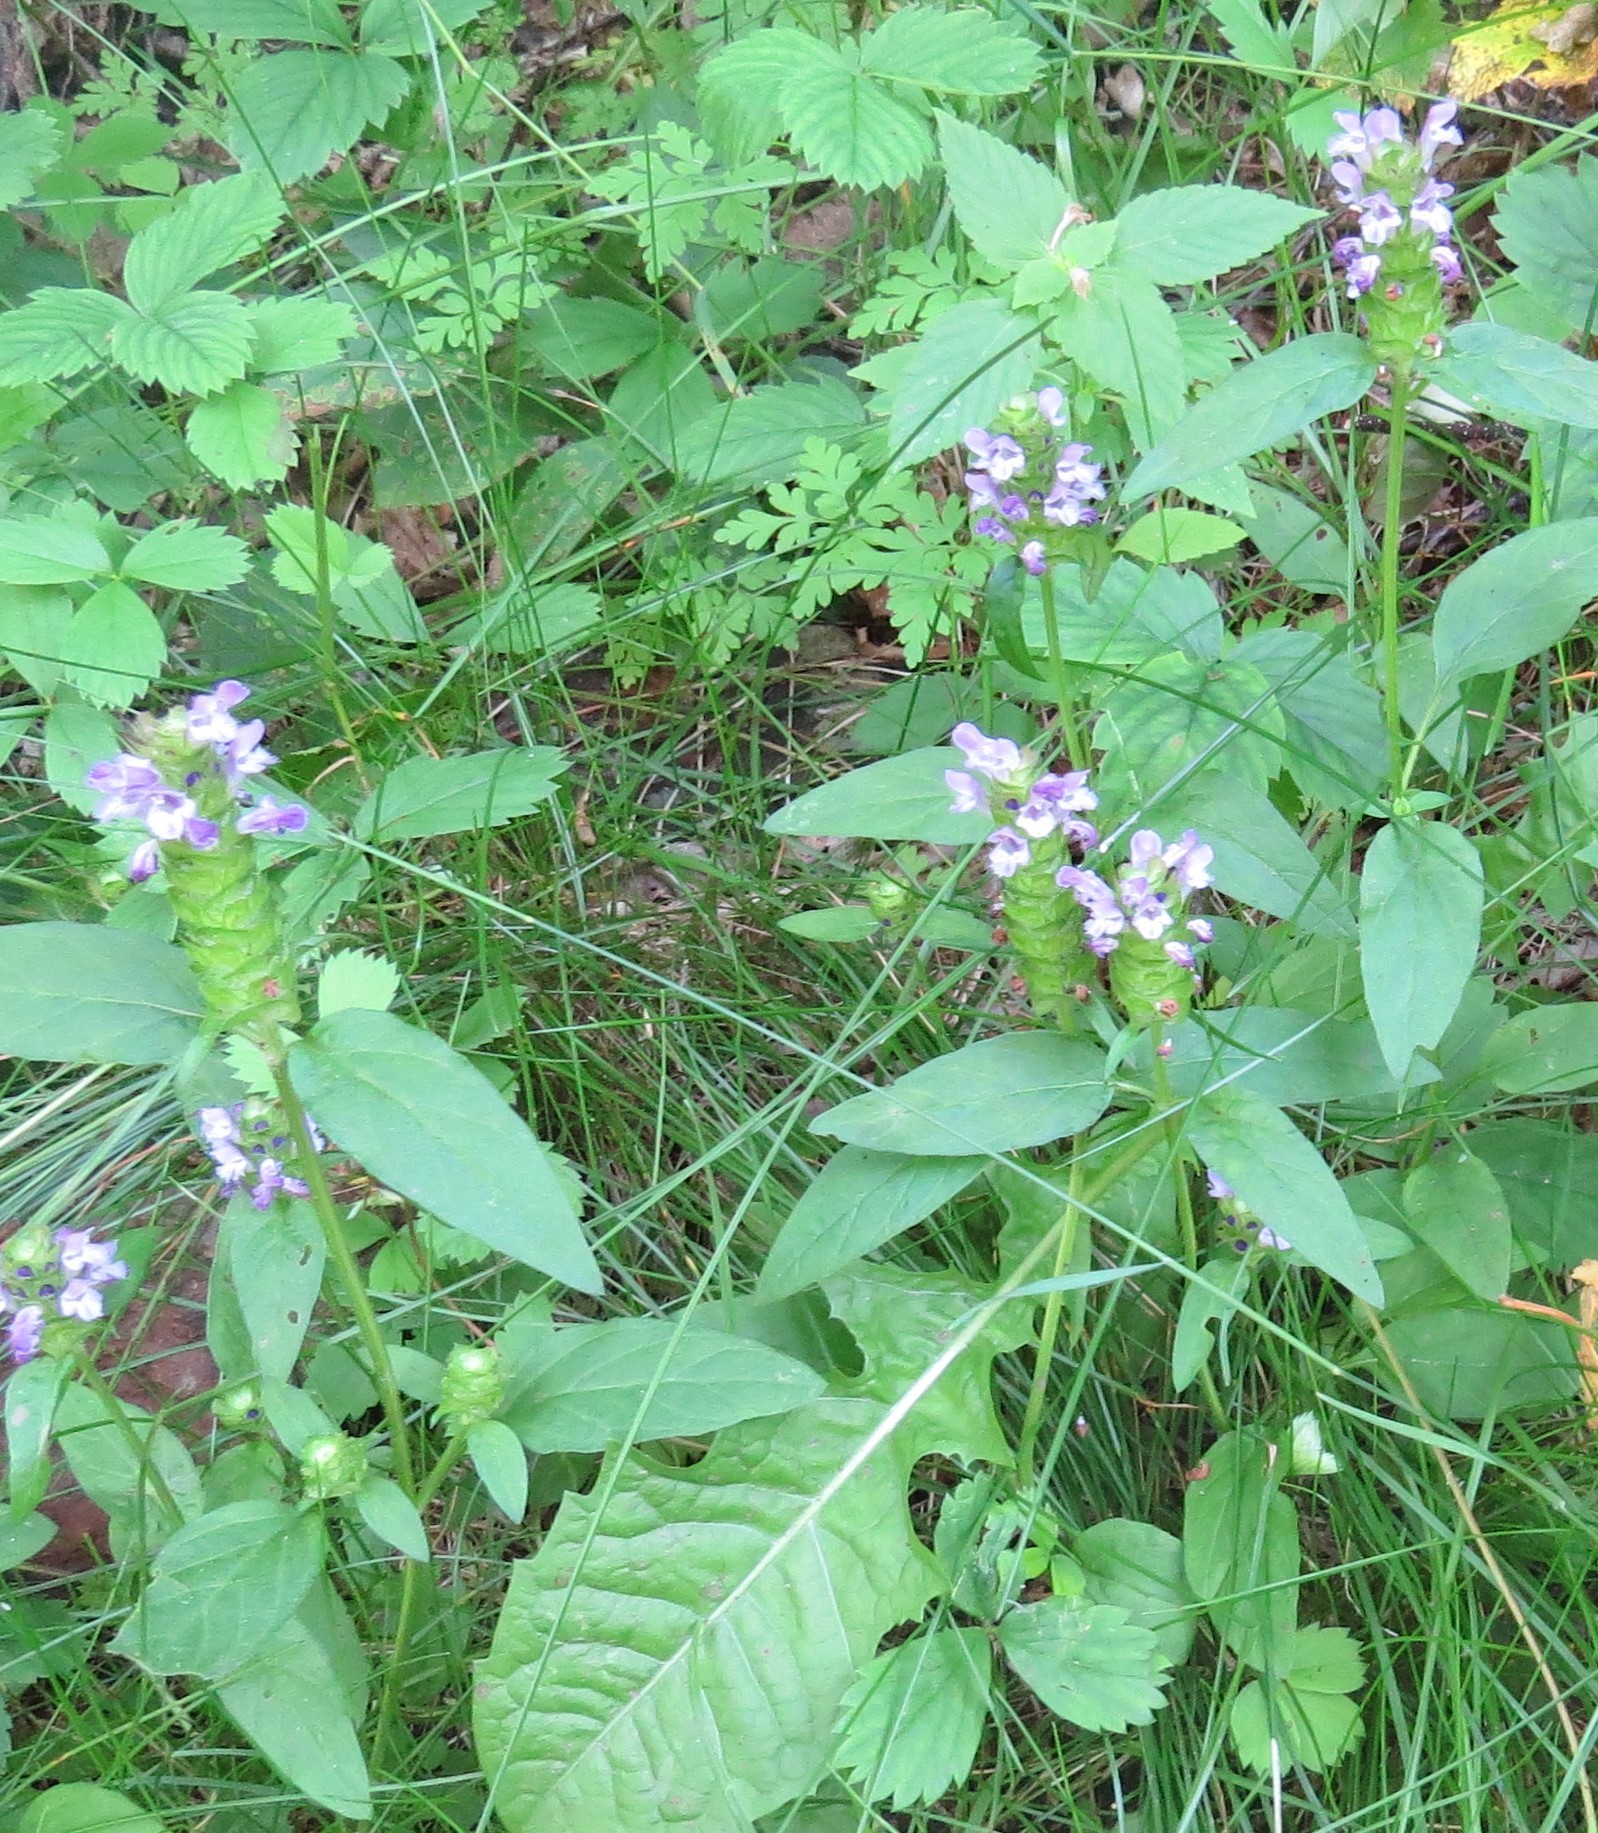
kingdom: Plantae
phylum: Tracheophyta
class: Magnoliopsida
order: Lamiales
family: Lamiaceae
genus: Prunella
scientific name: Prunella vulgaris
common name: Heal-all
